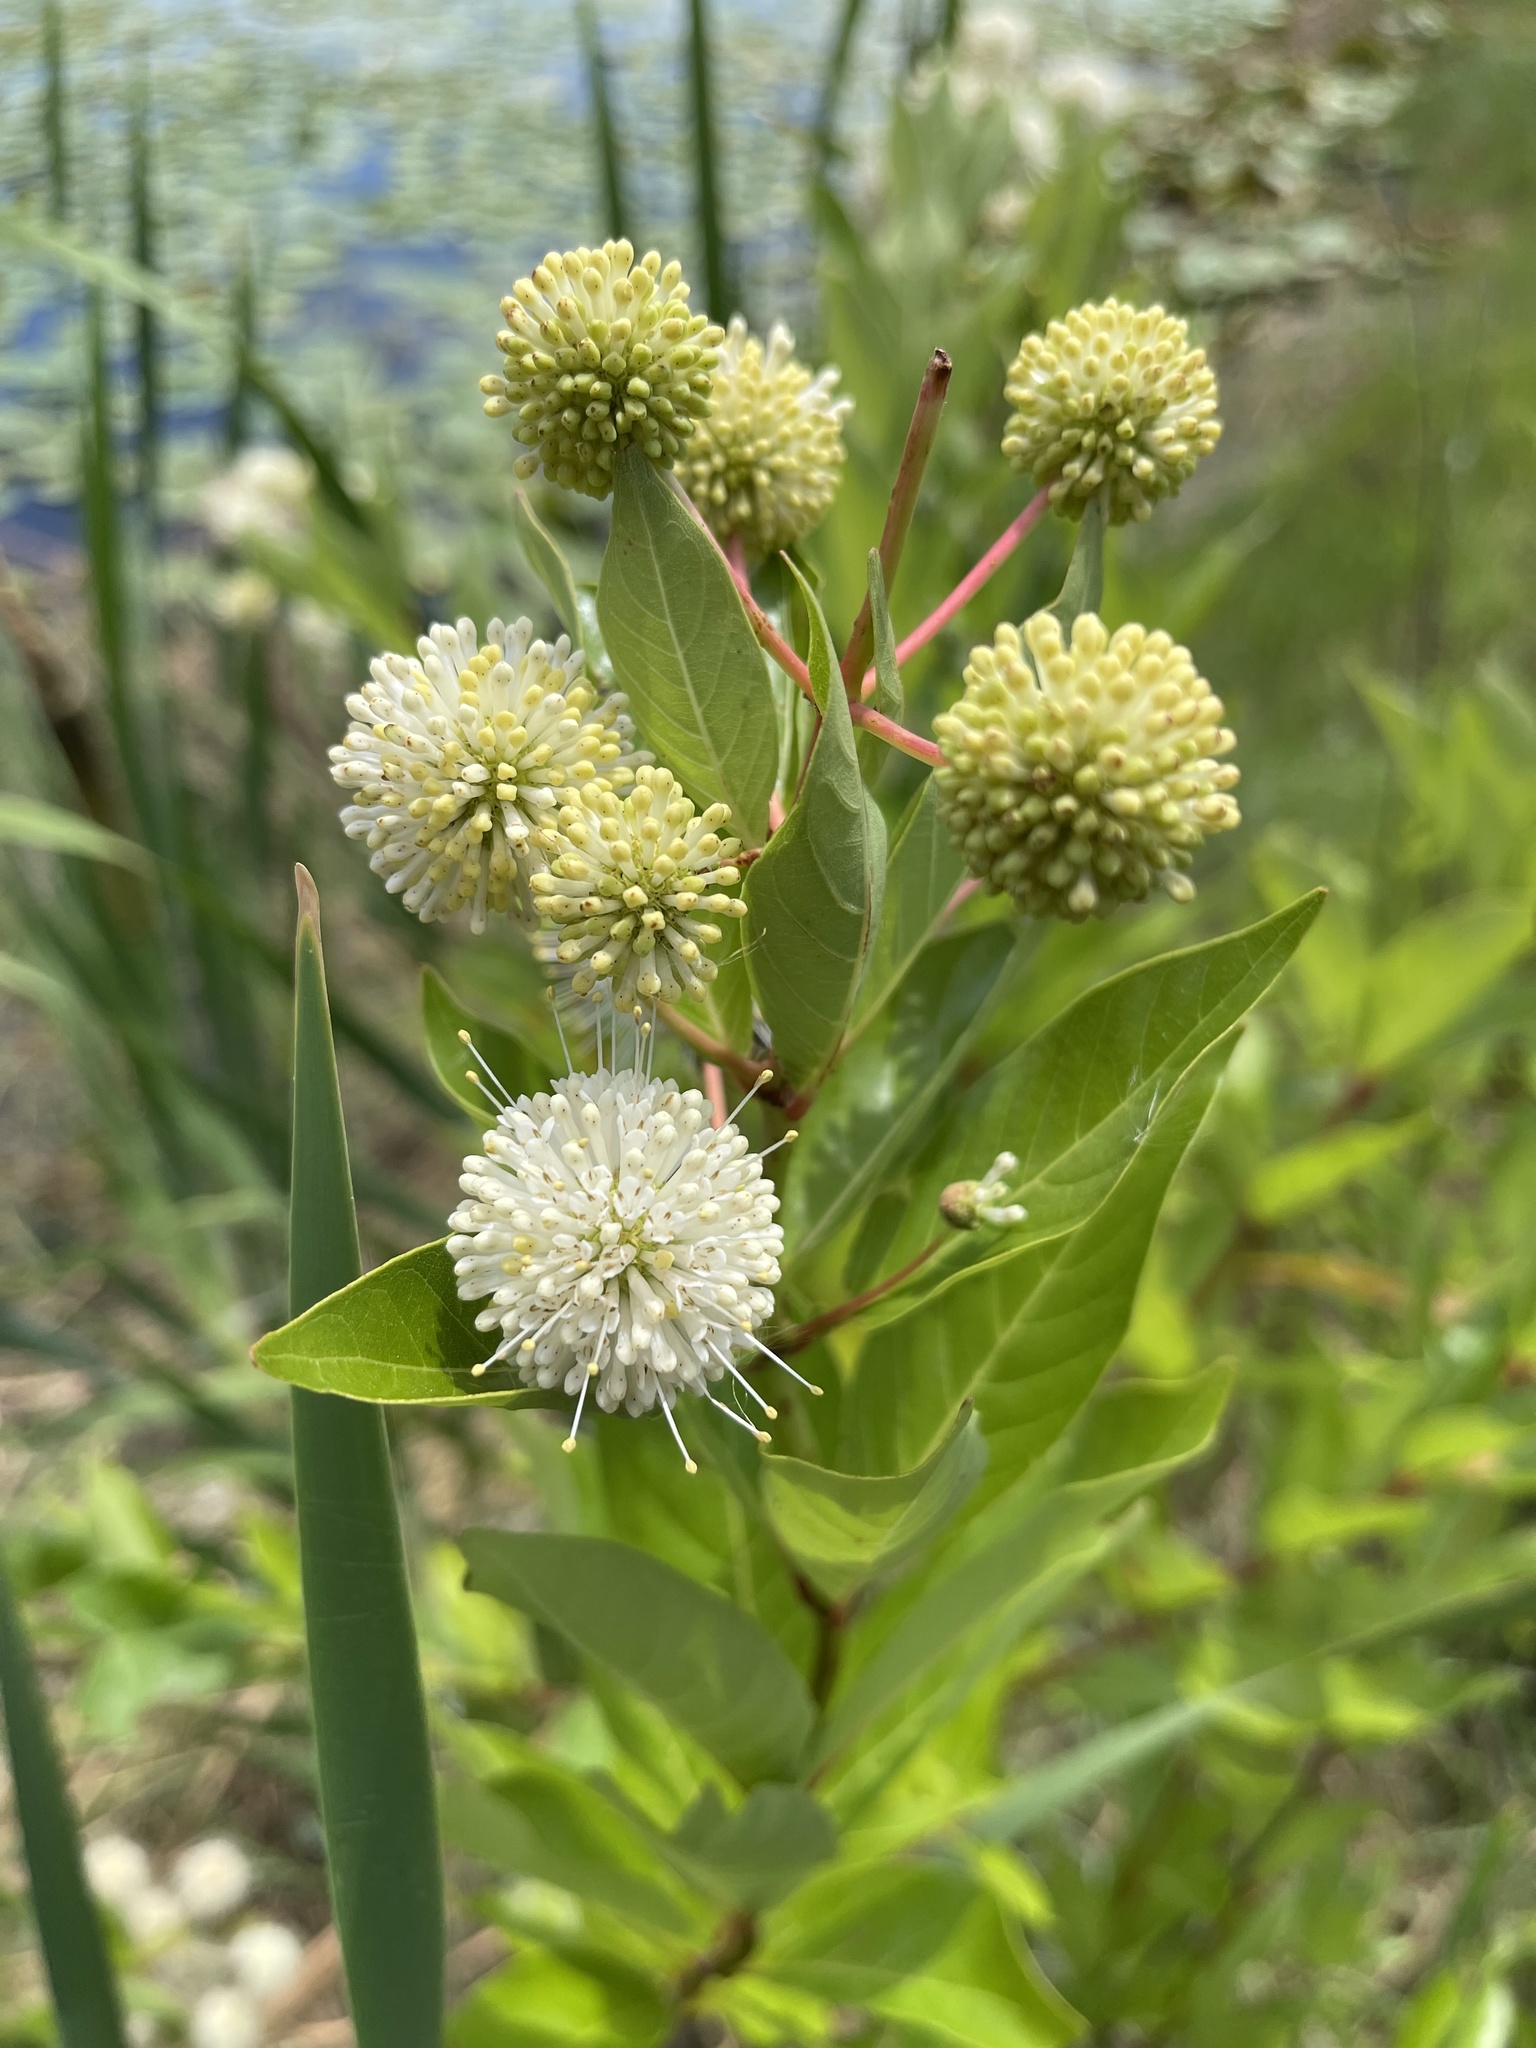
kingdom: Plantae
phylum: Tracheophyta
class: Magnoliopsida
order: Gentianales
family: Rubiaceae
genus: Cephalanthus
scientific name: Cephalanthus occidentalis
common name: Button-willow
